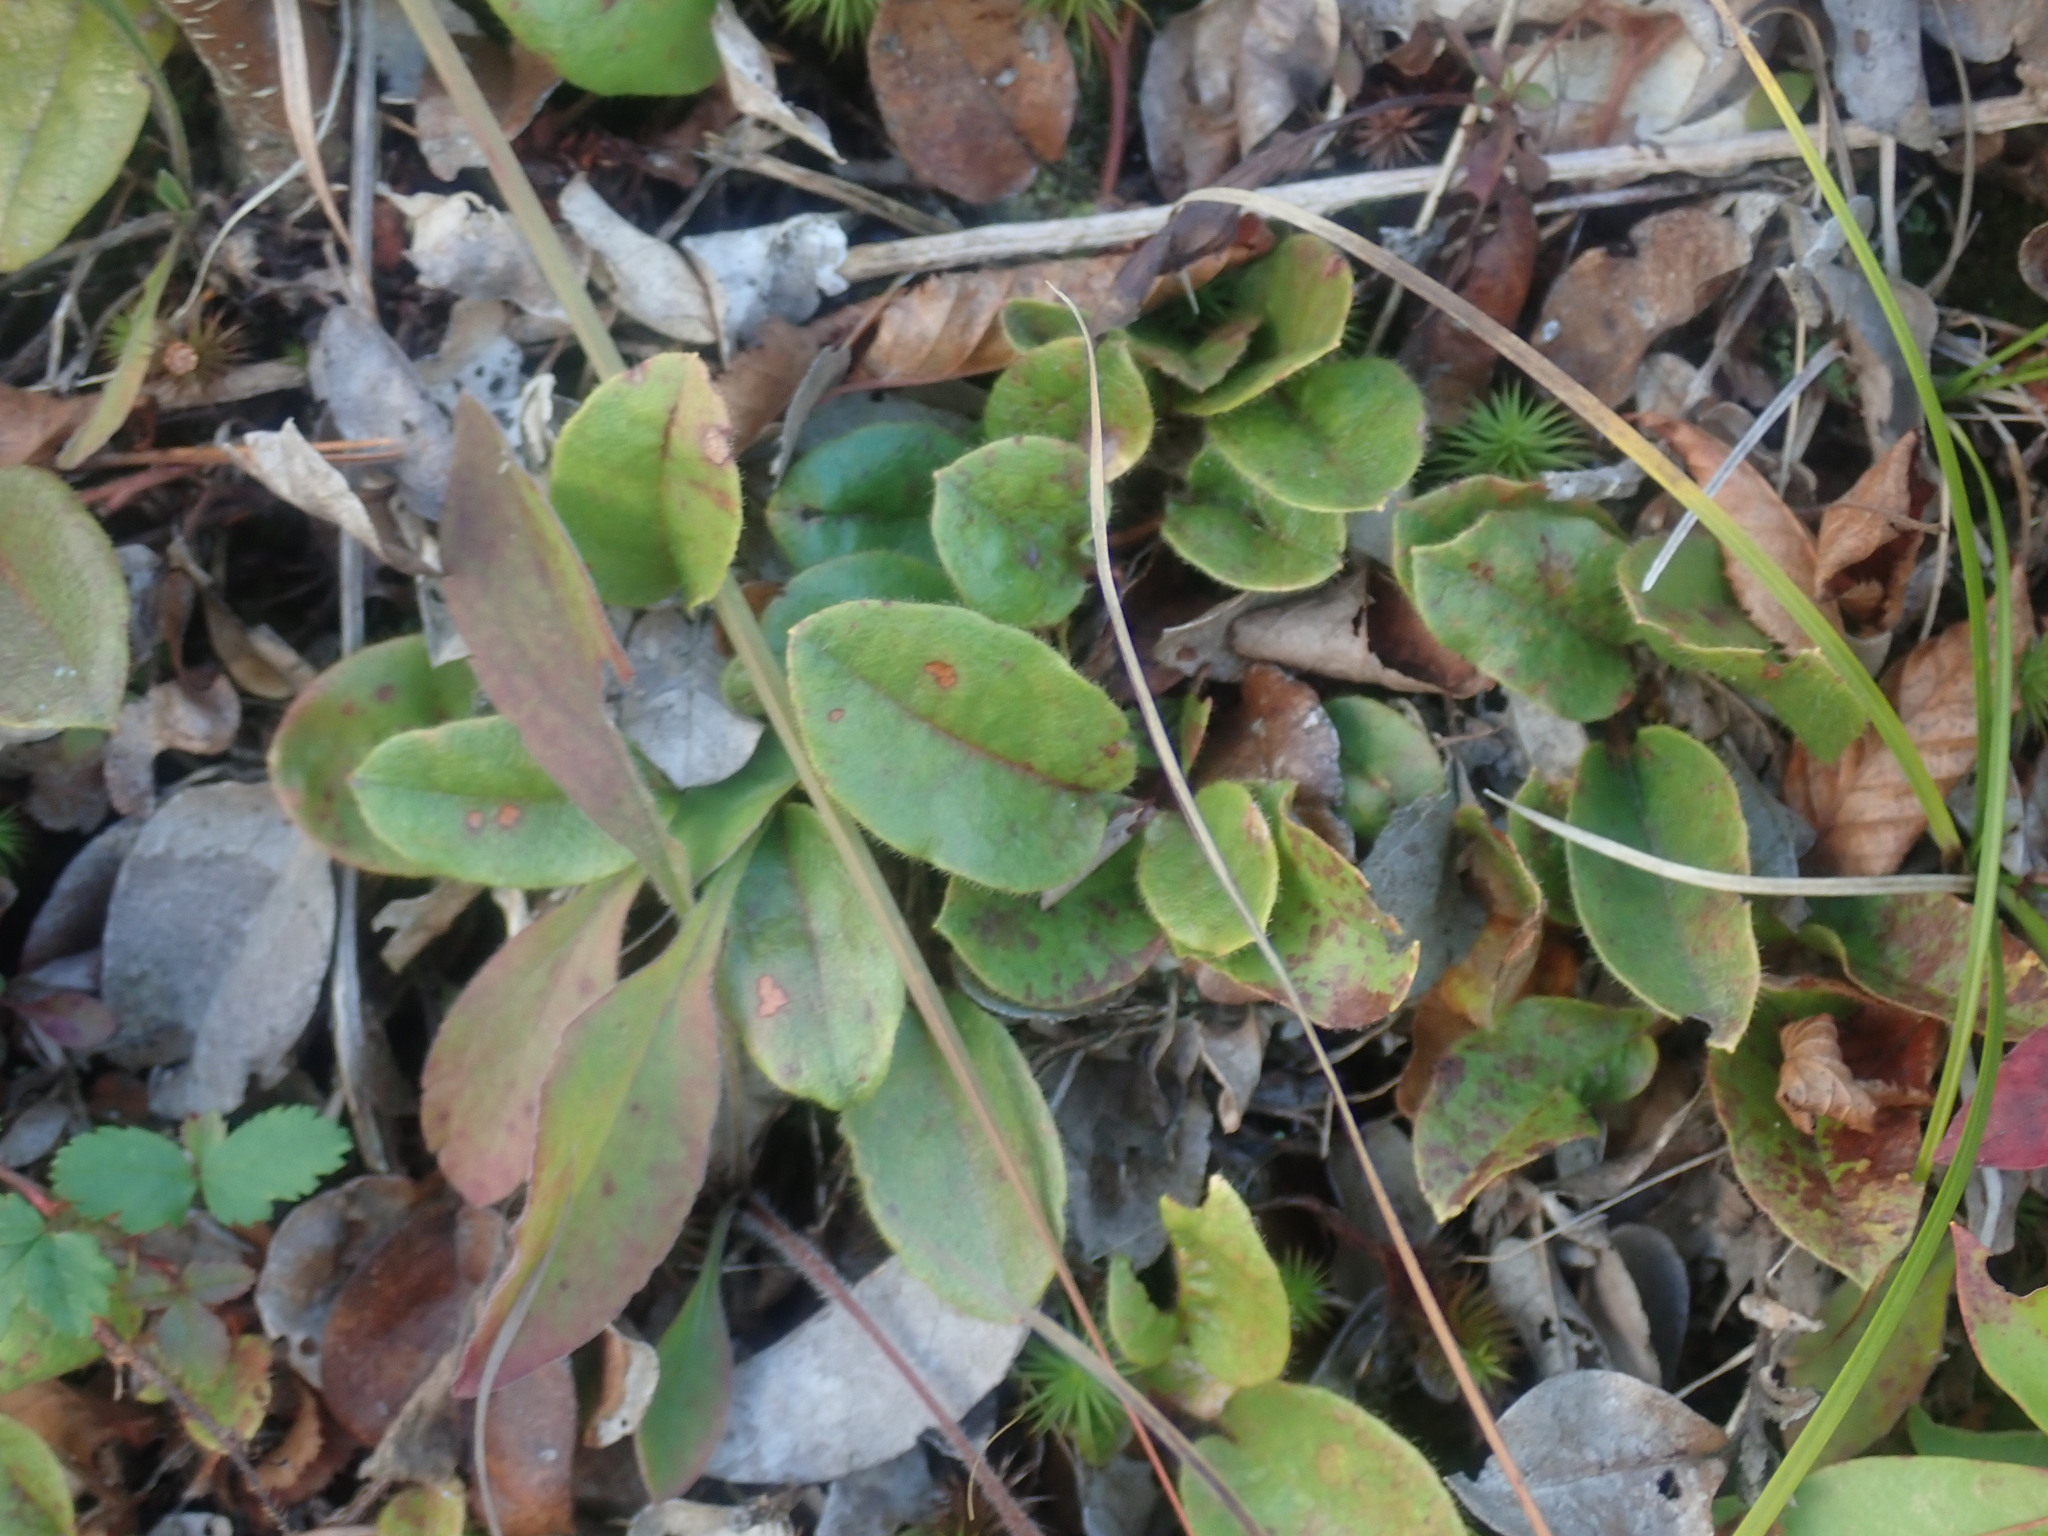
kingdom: Plantae
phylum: Tracheophyta
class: Magnoliopsida
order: Ericales
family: Ericaceae
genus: Epigaea
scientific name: Epigaea repens
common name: Gravelroot
